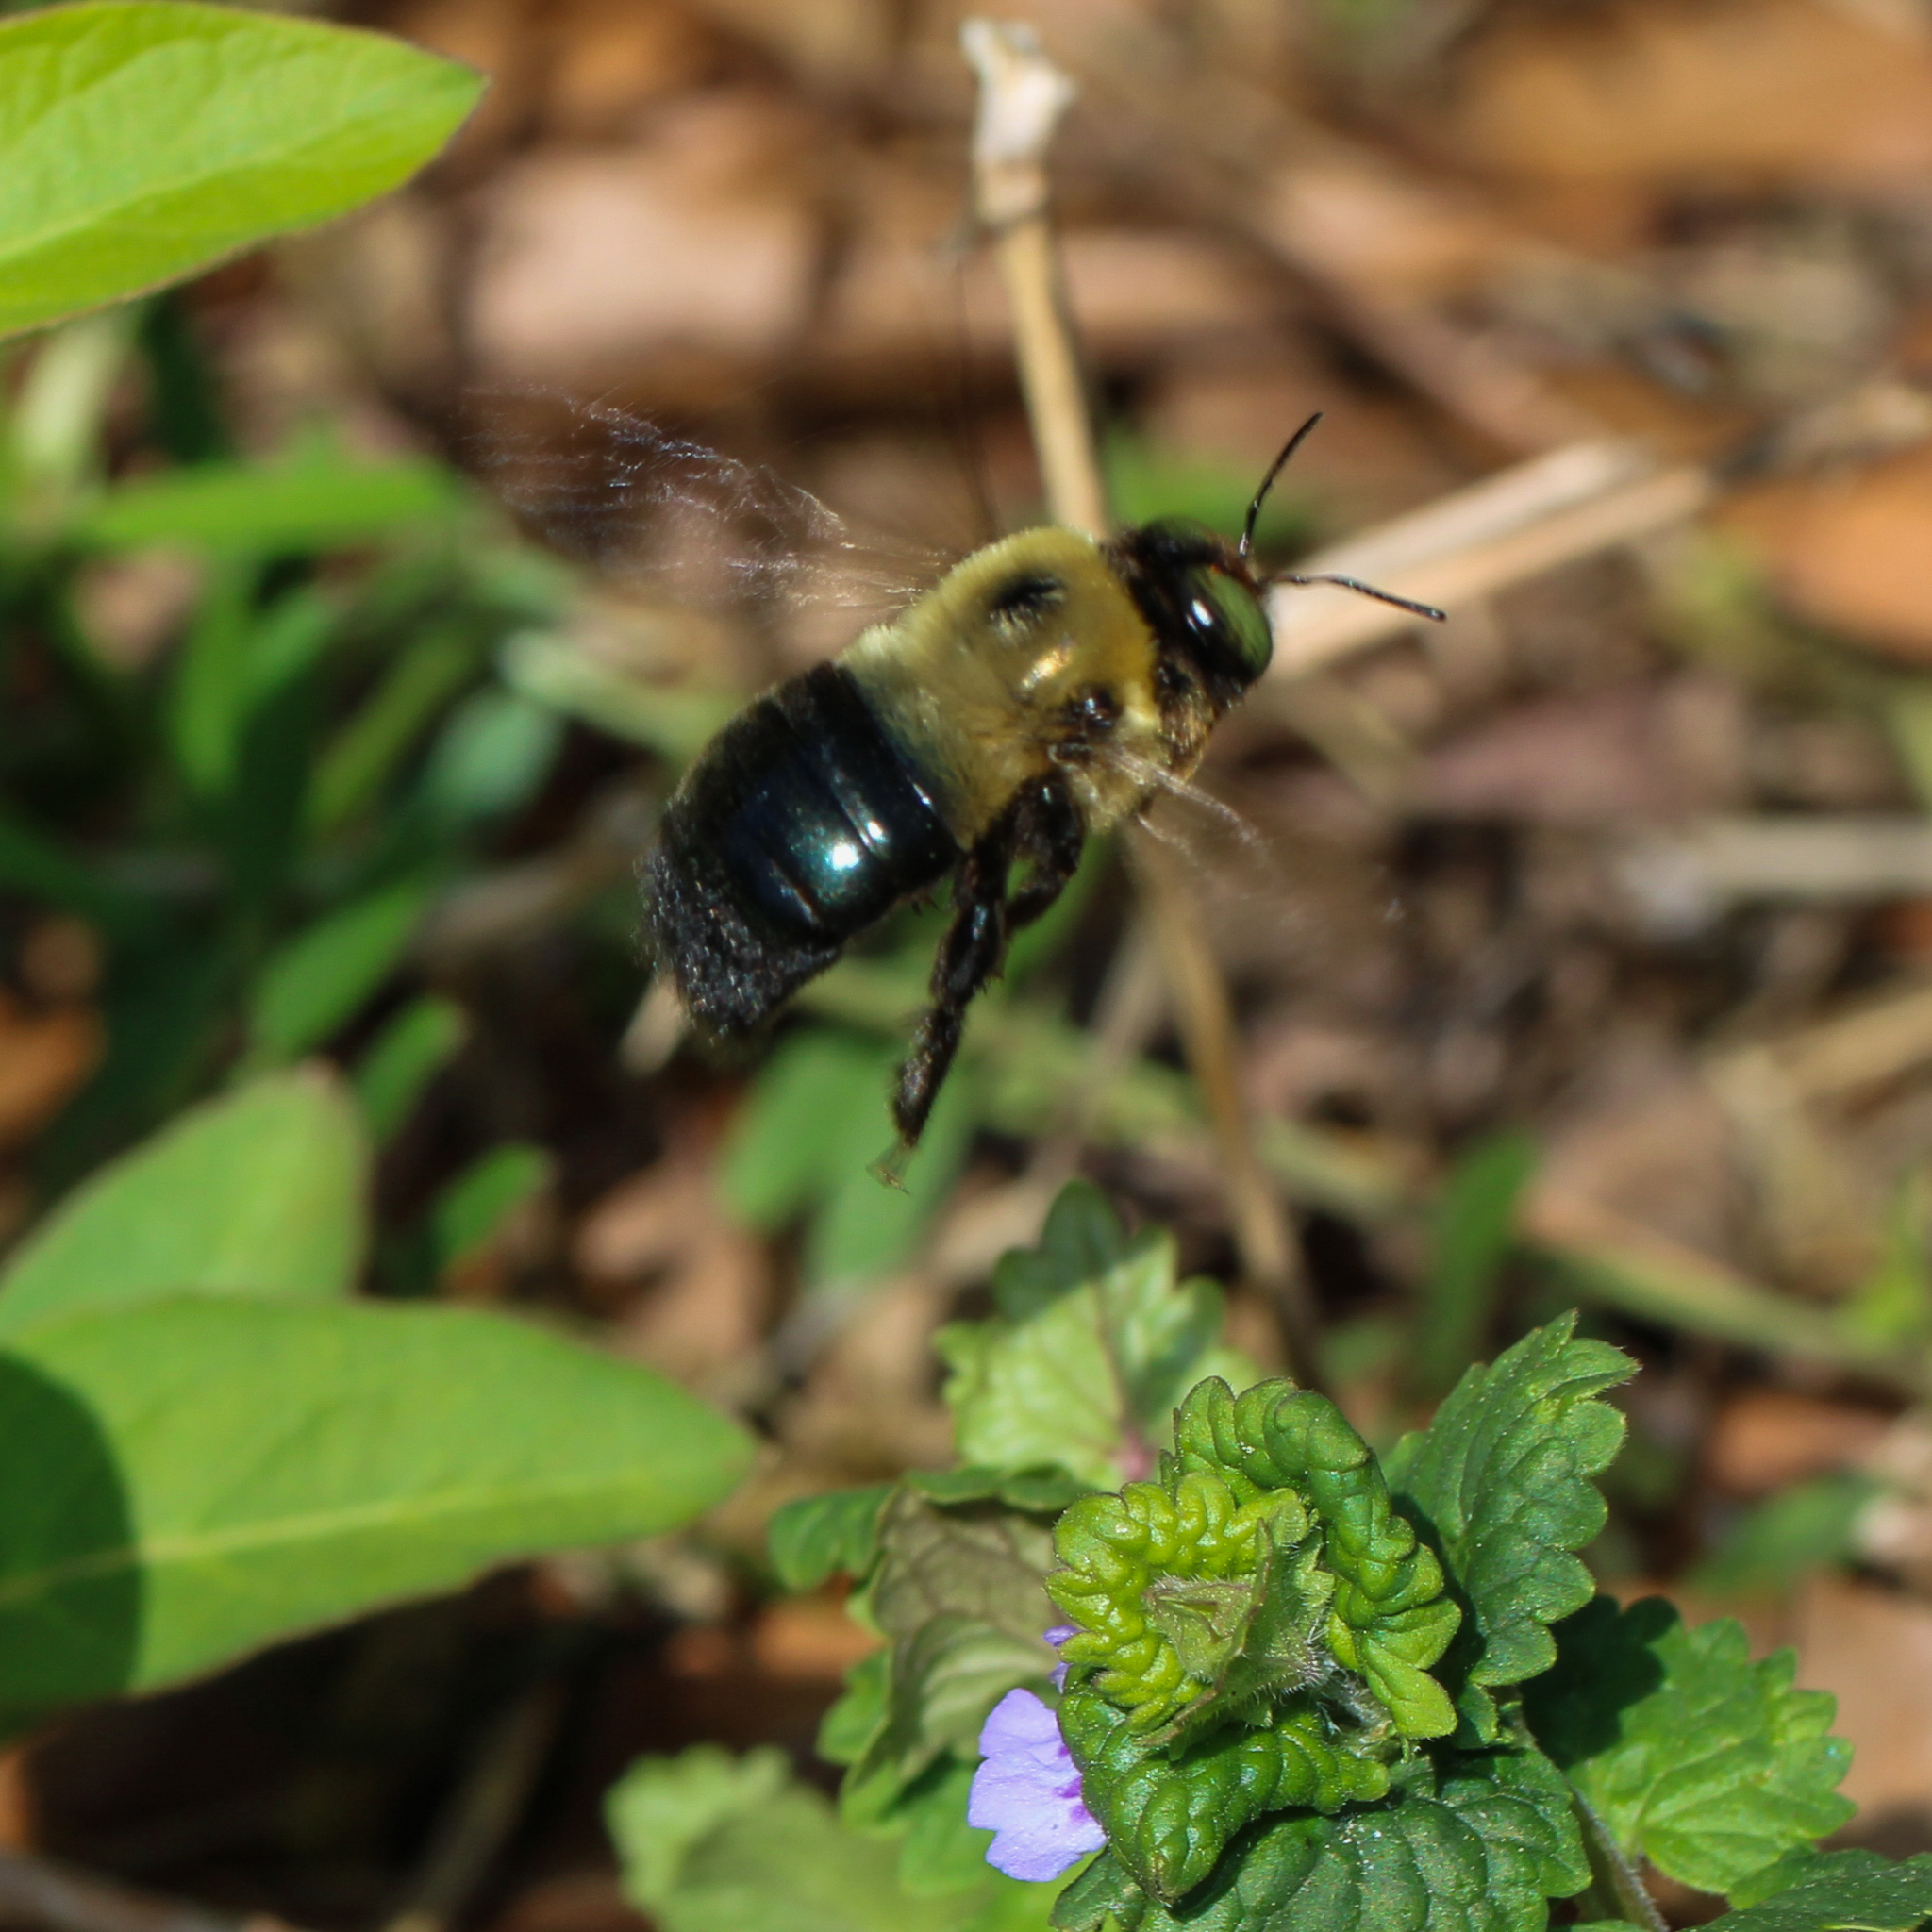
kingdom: Animalia
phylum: Arthropoda
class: Insecta
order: Hymenoptera
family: Apidae
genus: Xylocopa
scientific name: Xylocopa virginica
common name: Carpenter bee
